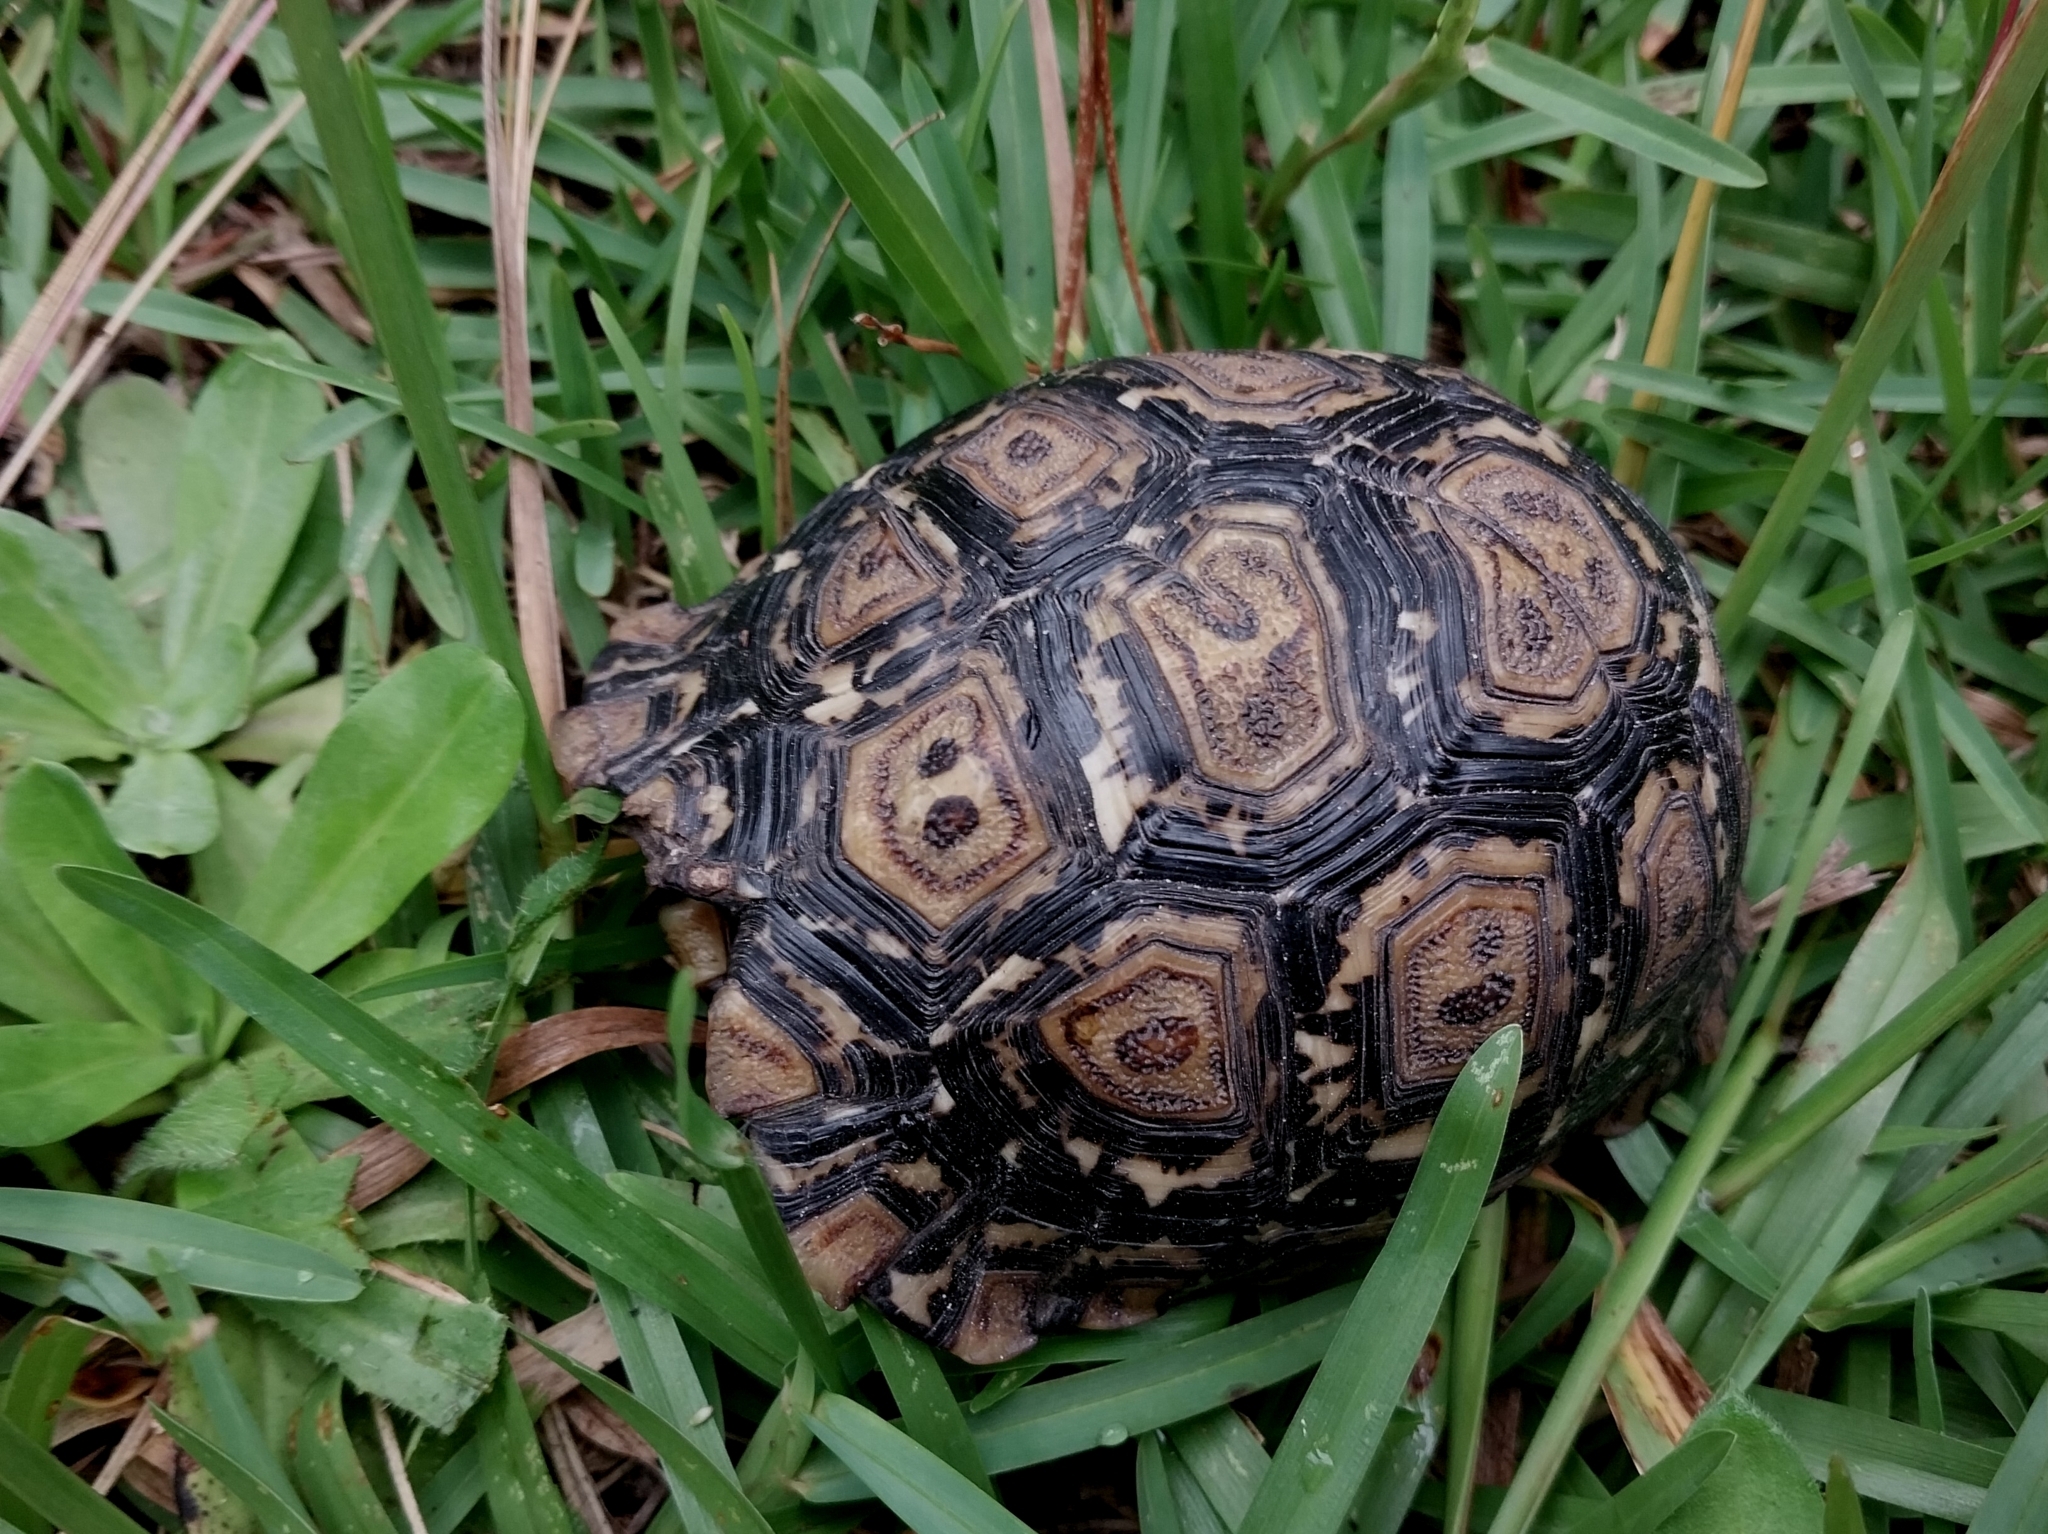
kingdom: Animalia
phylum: Chordata
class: Testudines
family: Testudinidae
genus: Stigmochelys
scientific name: Stigmochelys pardalis
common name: Leopard tortoise
